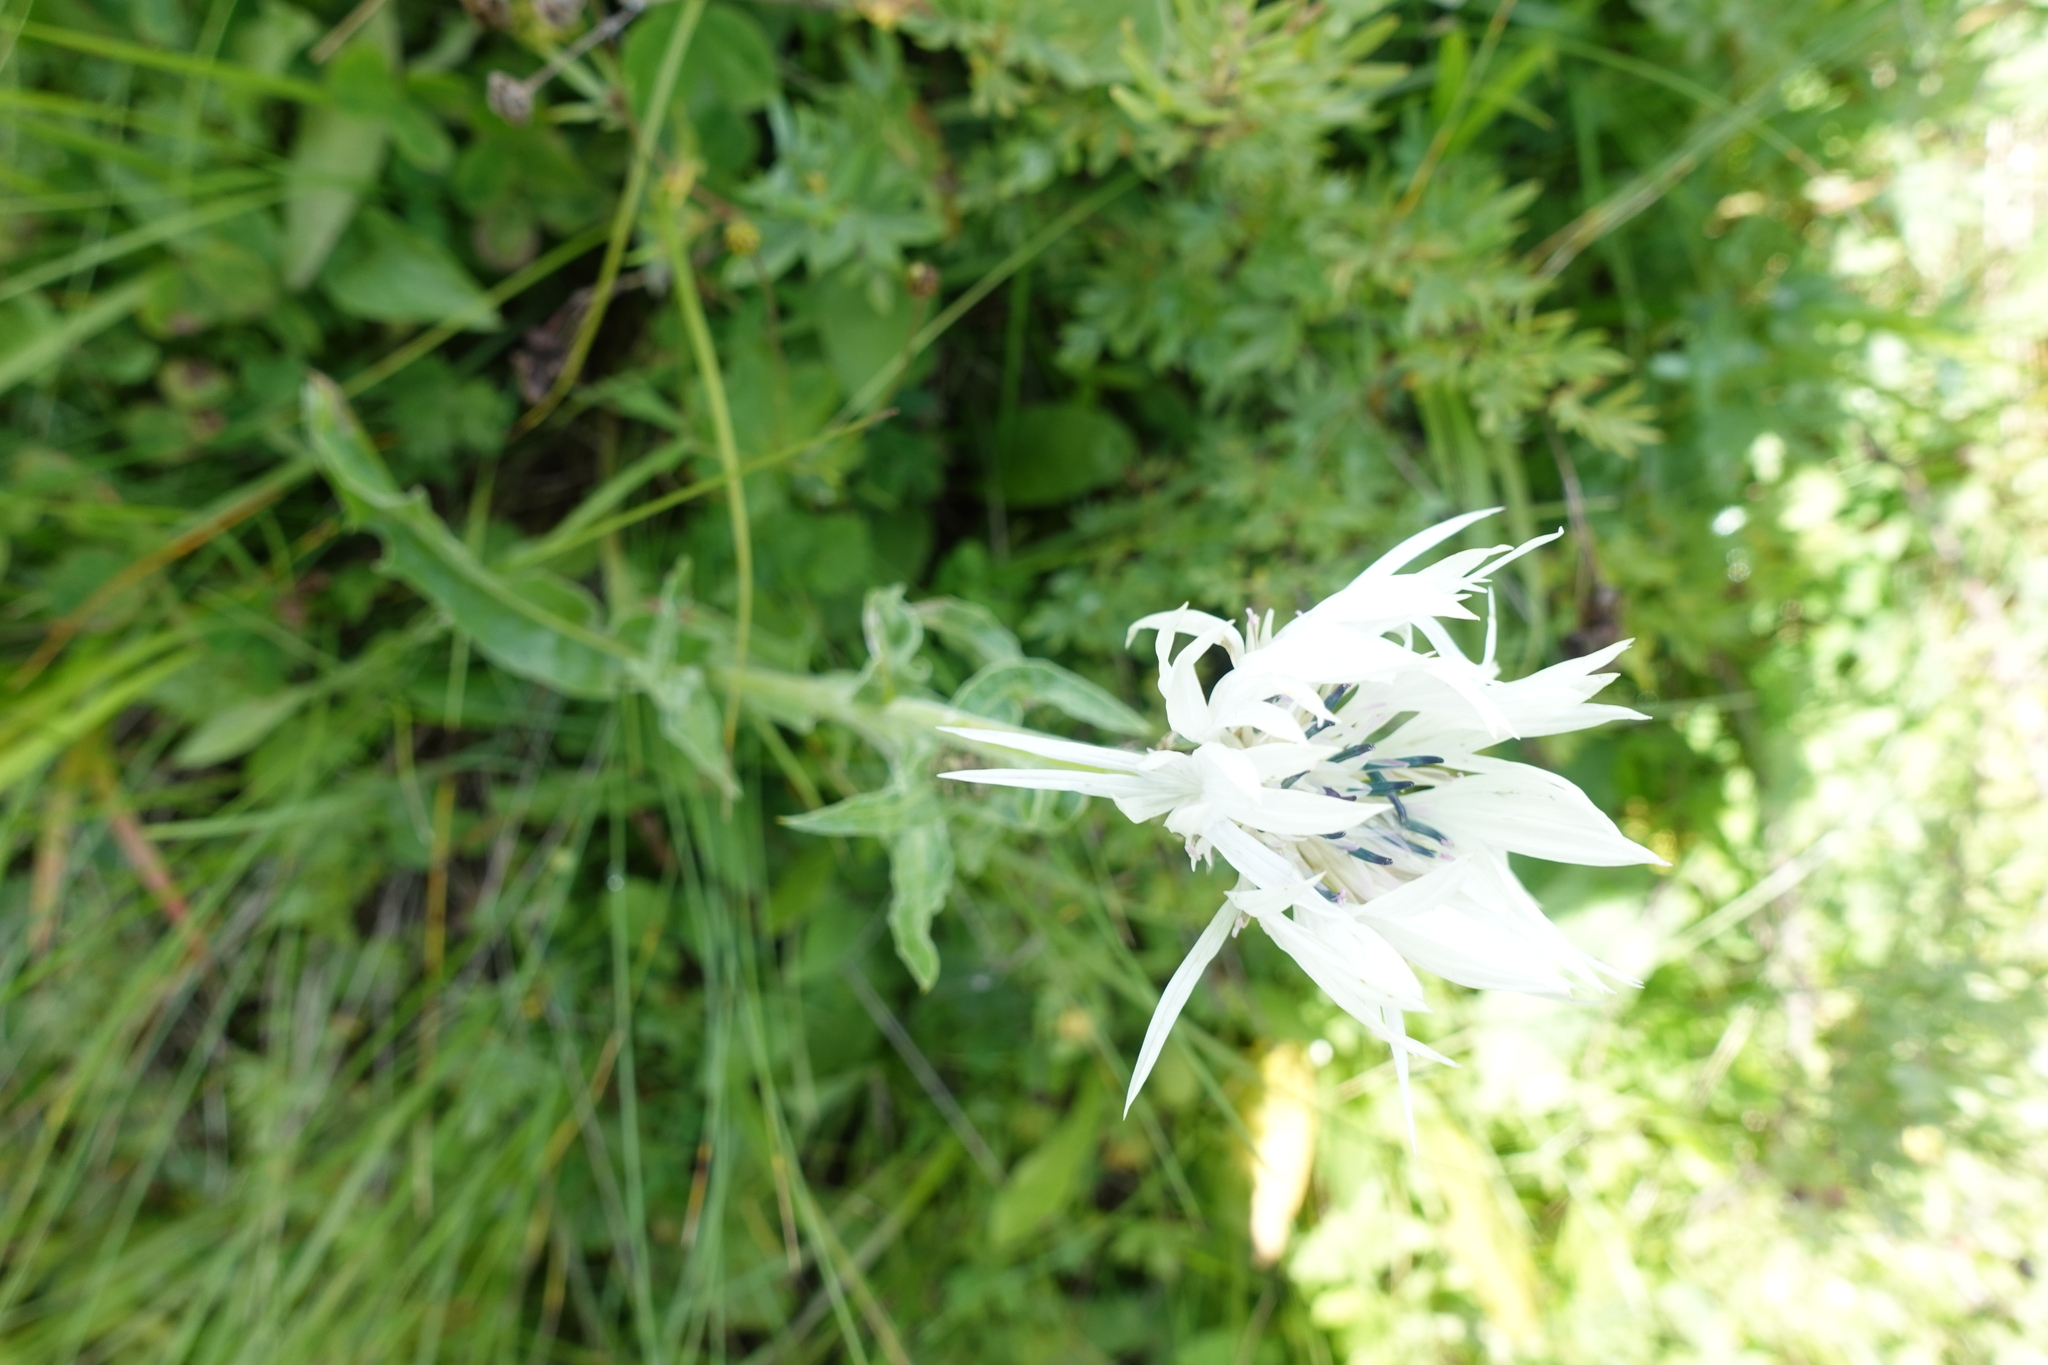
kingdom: Plantae
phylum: Tracheophyta
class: Magnoliopsida
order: Asterales
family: Asteraceae
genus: Centaurea
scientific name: Centaurea cheiranthifolia
